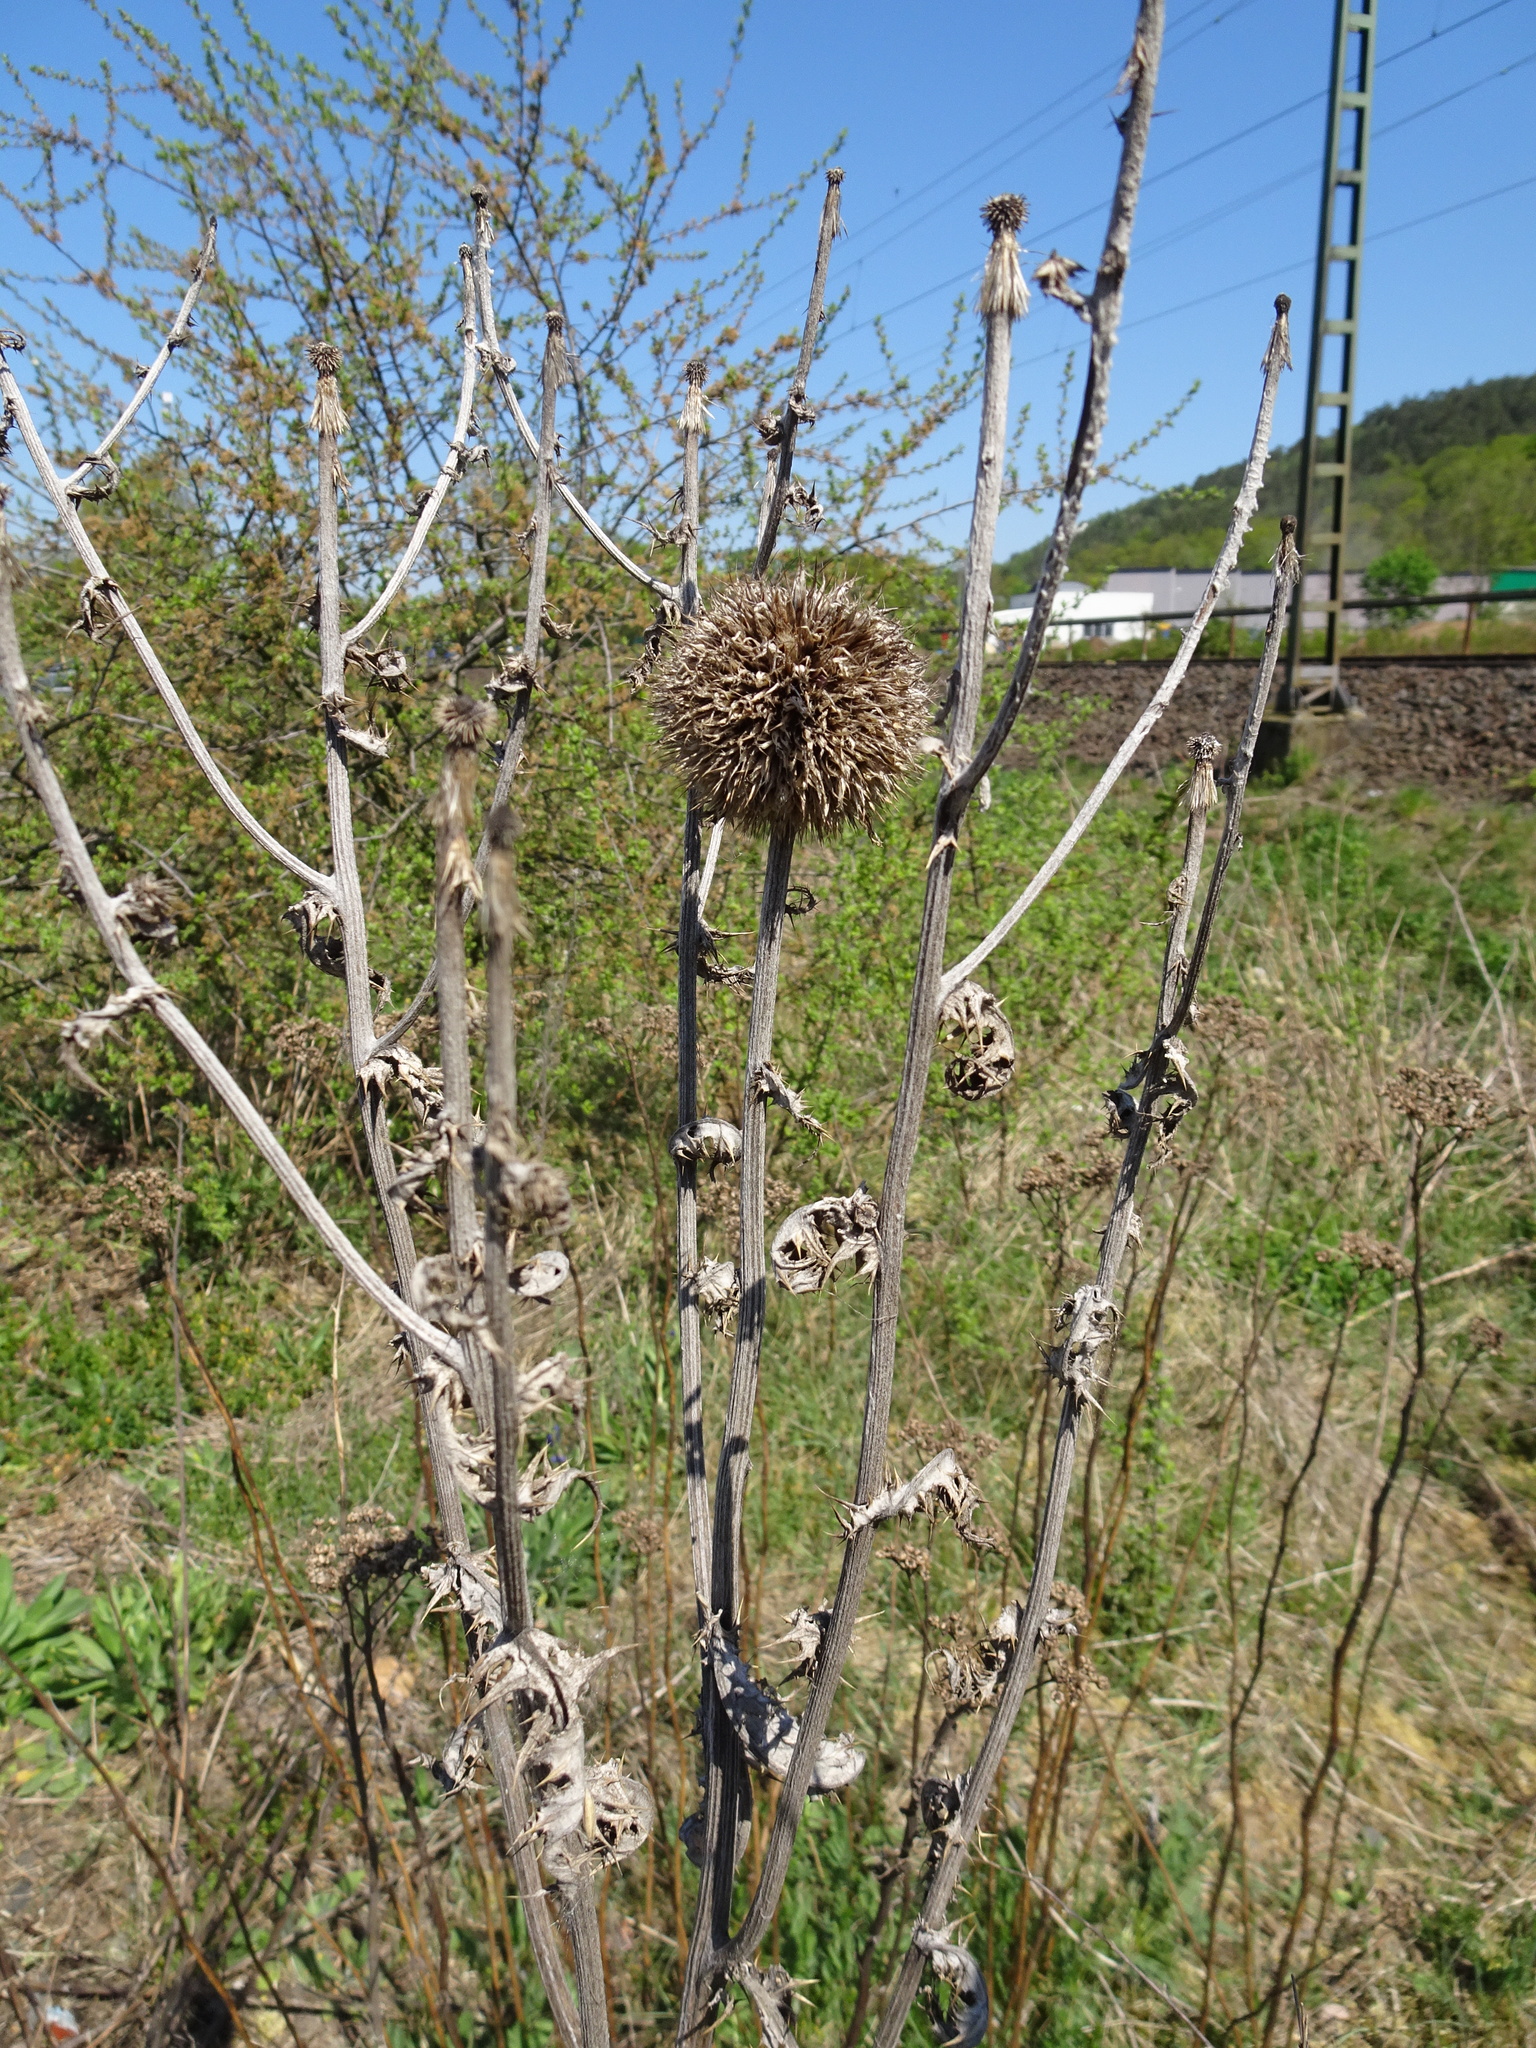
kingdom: Plantae
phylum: Tracheophyta
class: Magnoliopsida
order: Asterales
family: Asteraceae
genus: Echinops
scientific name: Echinops sphaerocephalus
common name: Glandular globe-thistle
